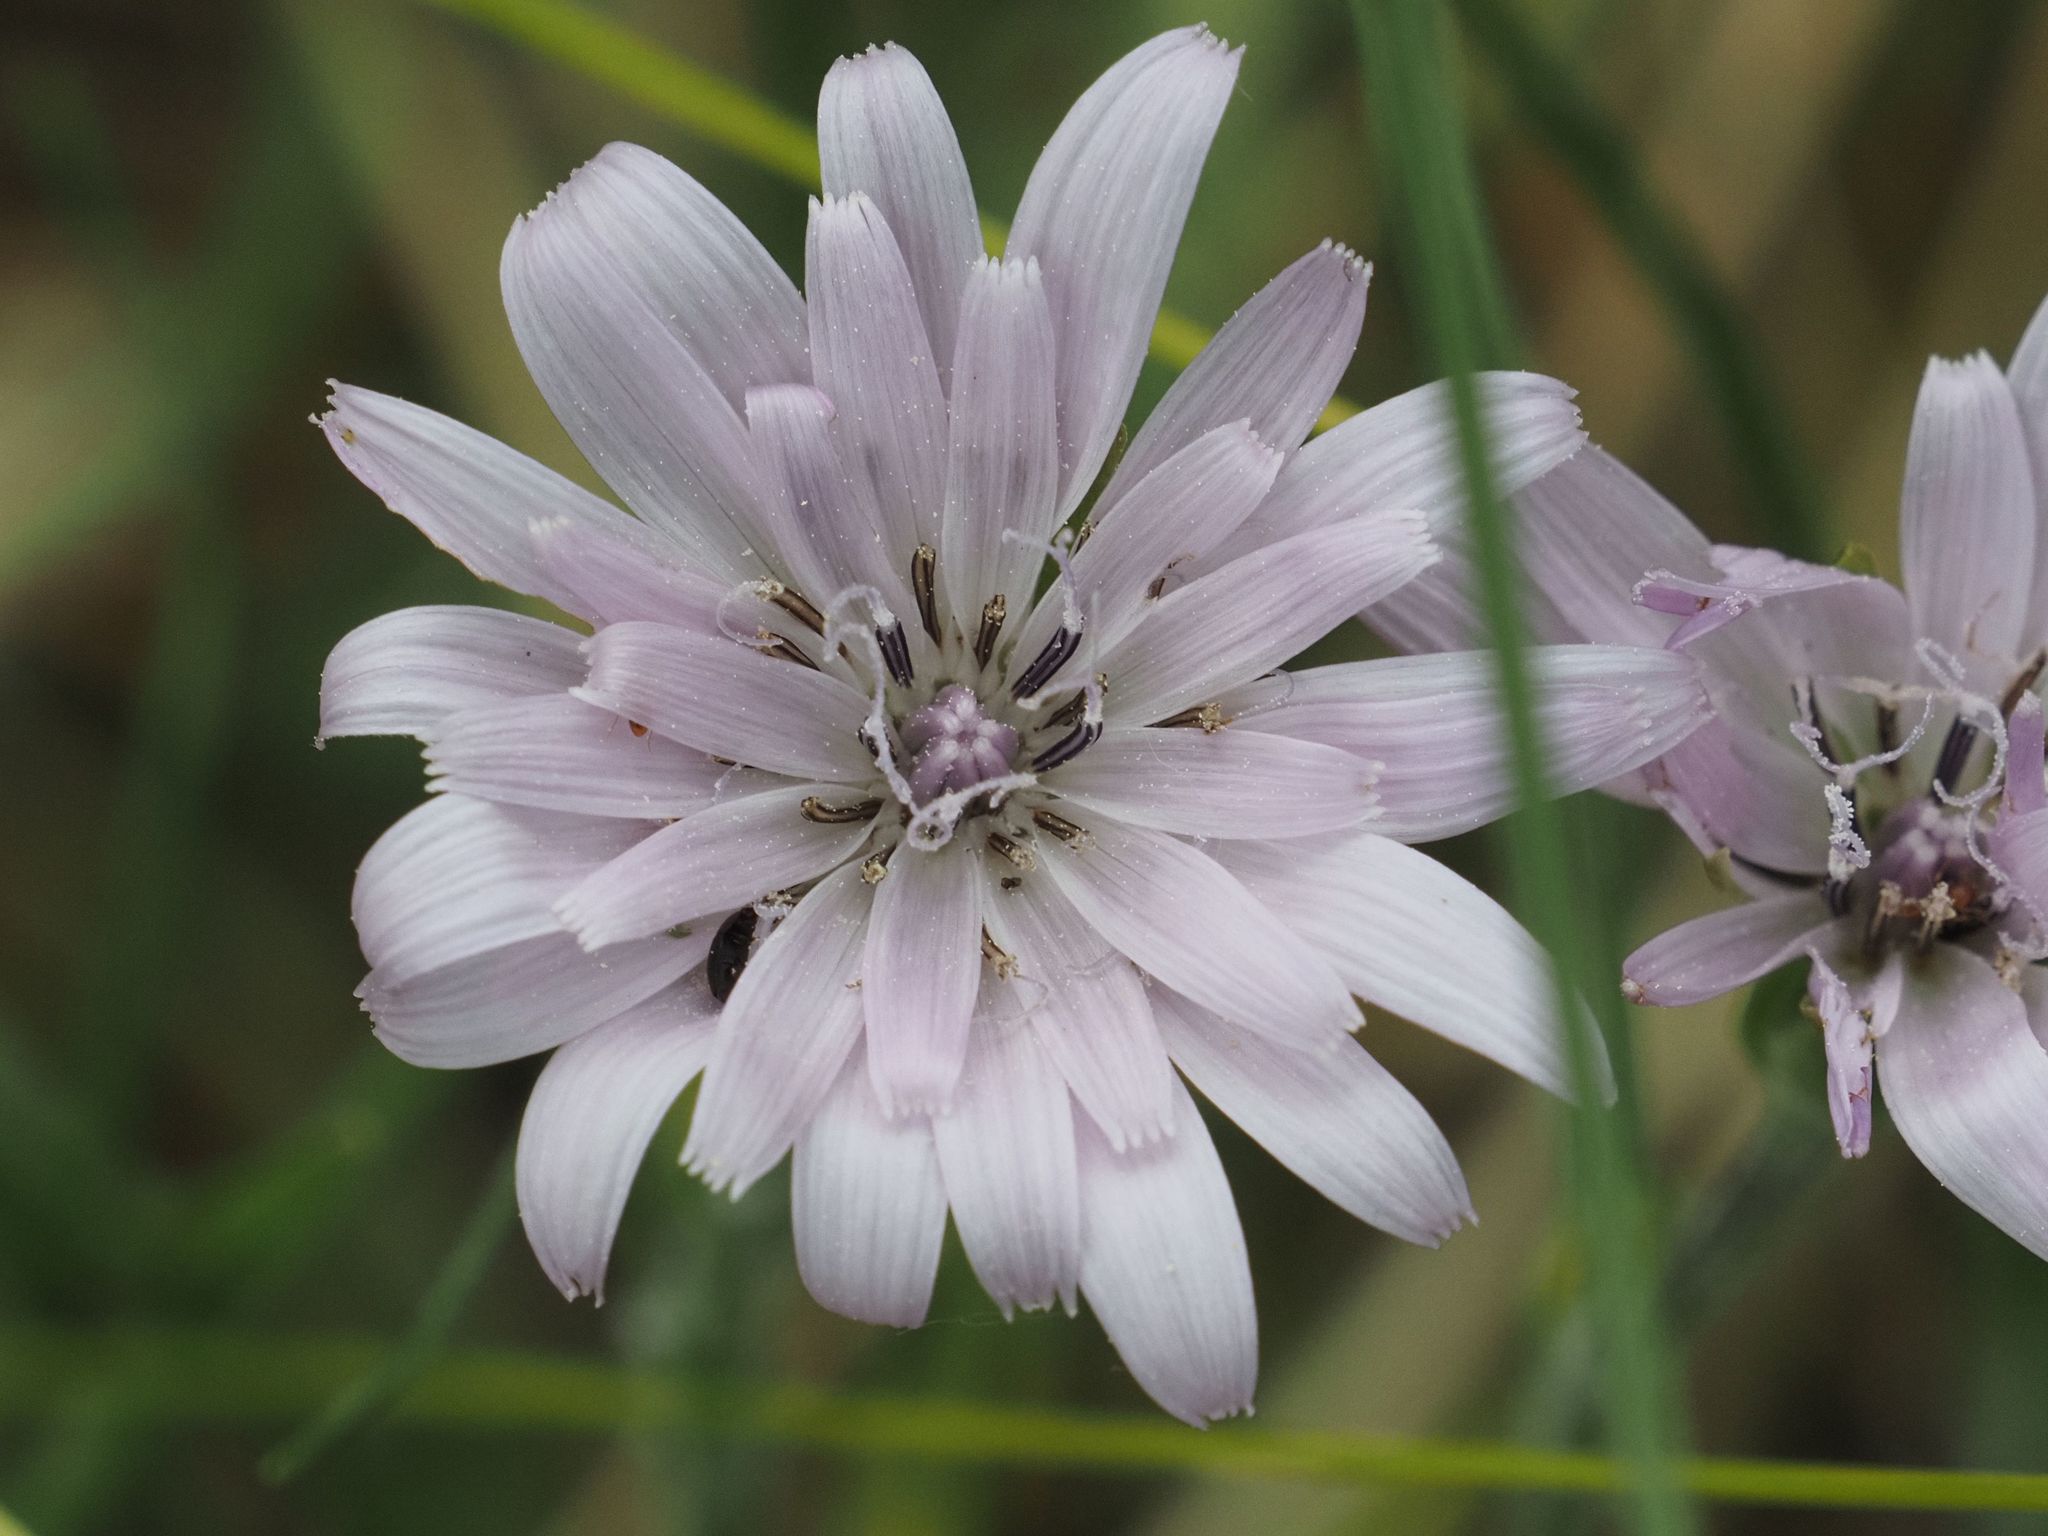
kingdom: Plantae
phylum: Tracheophyta
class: Magnoliopsida
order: Asterales
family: Asteraceae
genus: Scorzonera
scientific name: Scorzonera purpurea
